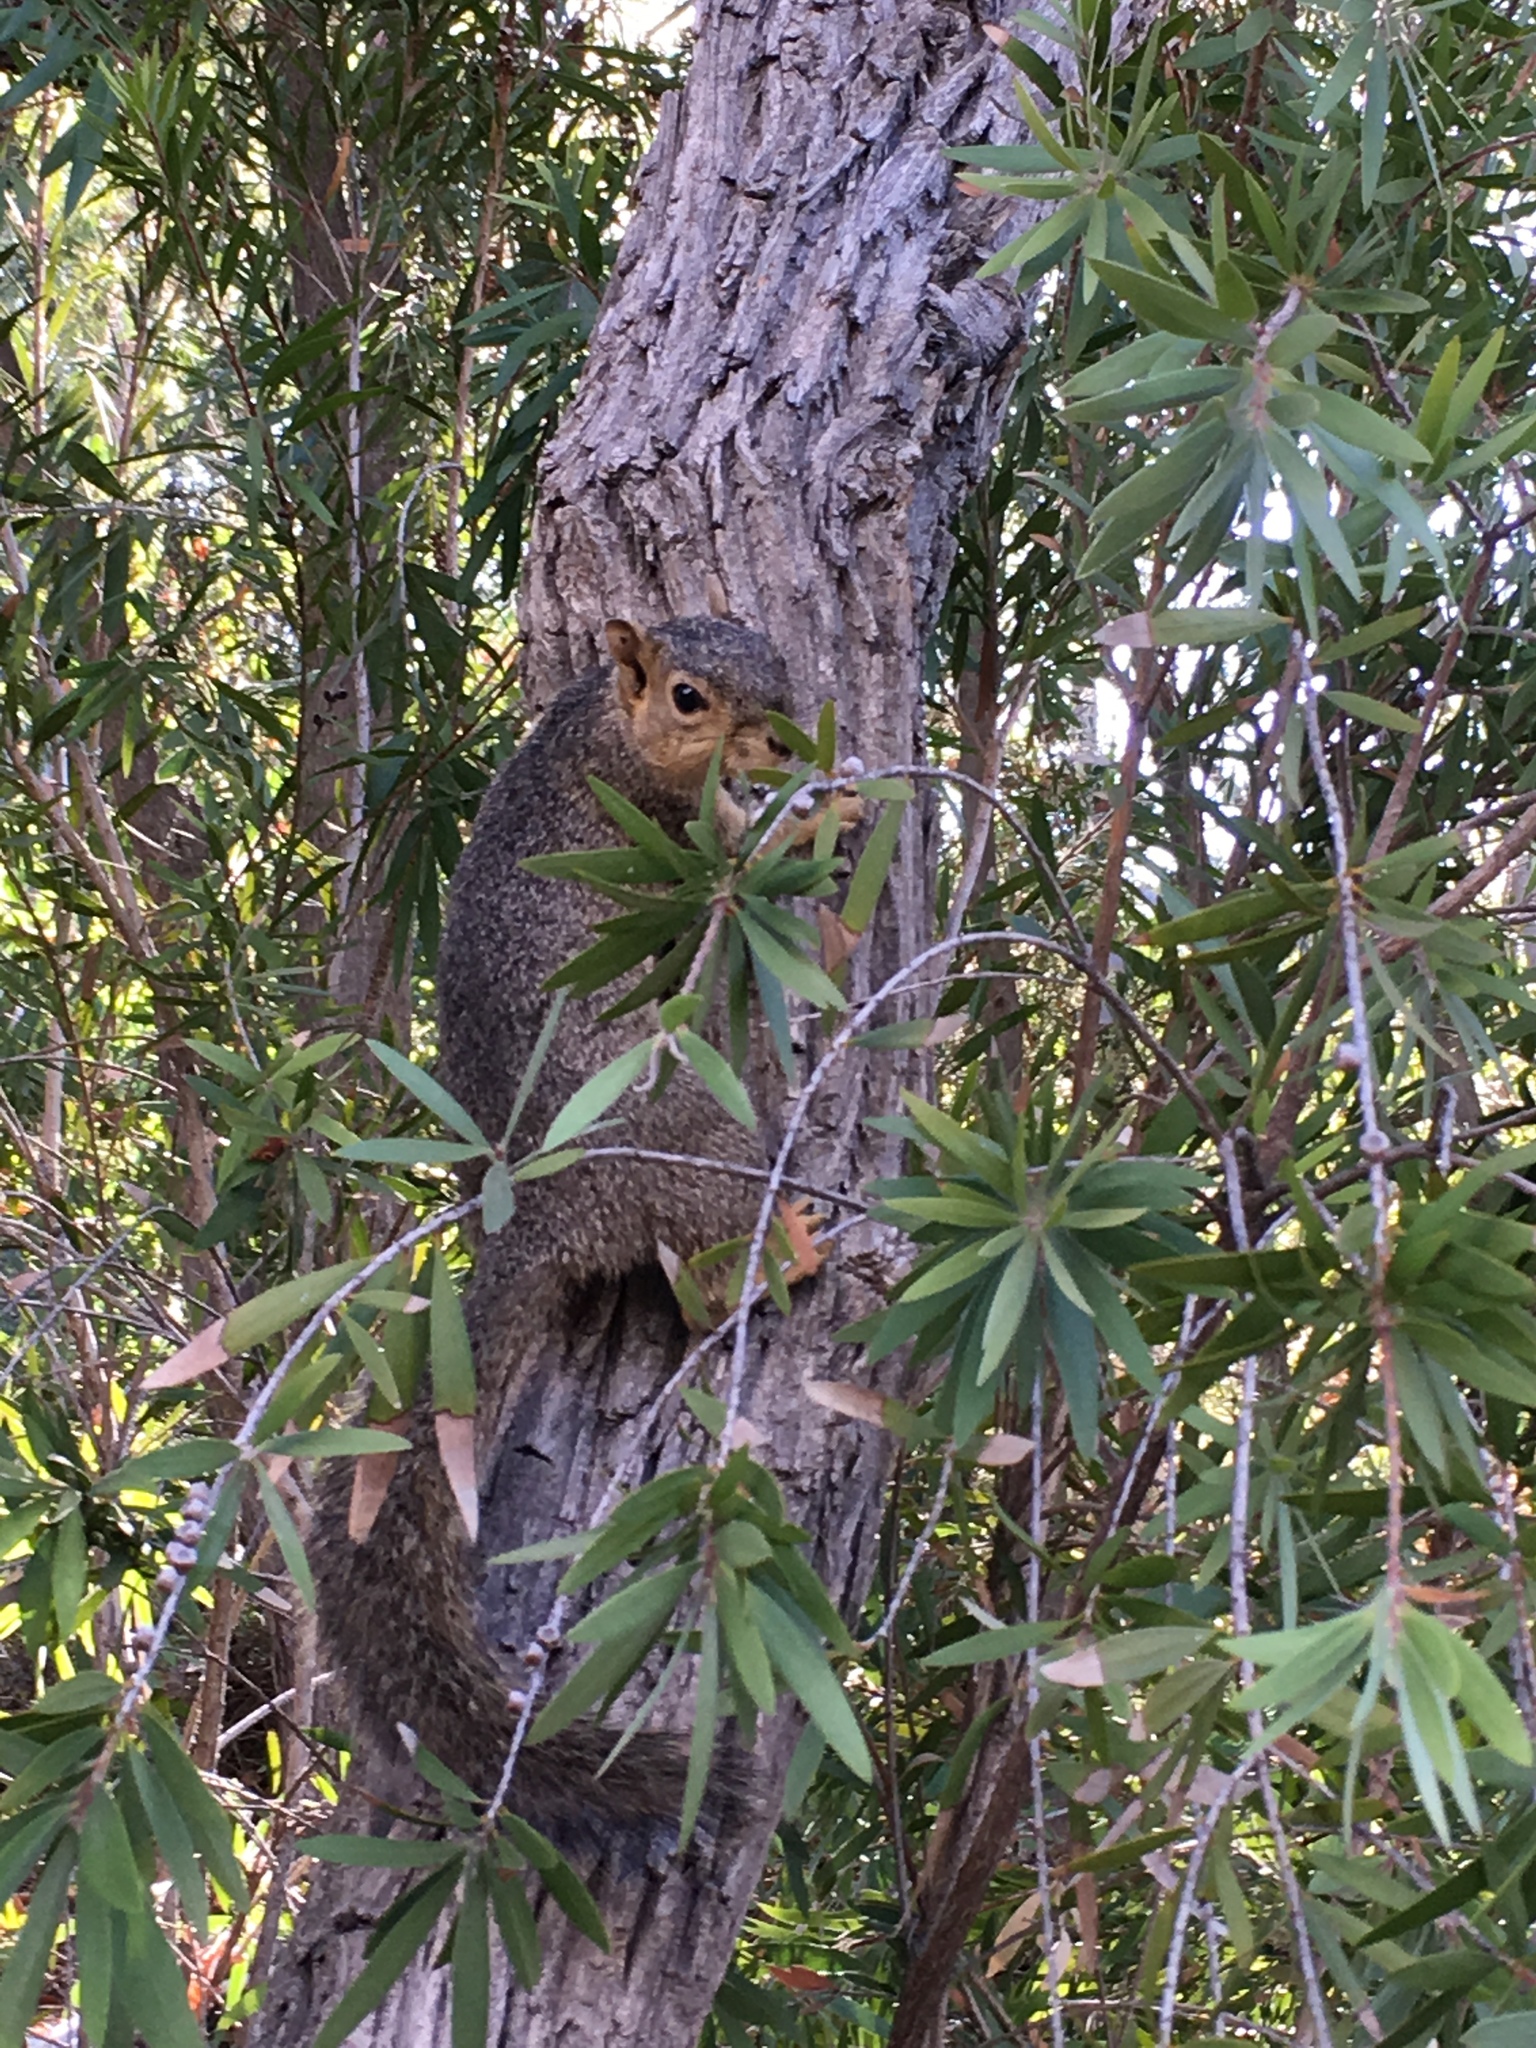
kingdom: Animalia
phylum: Chordata
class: Mammalia
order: Rodentia
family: Sciuridae
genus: Sciurus
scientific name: Sciurus niger
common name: Fox squirrel
